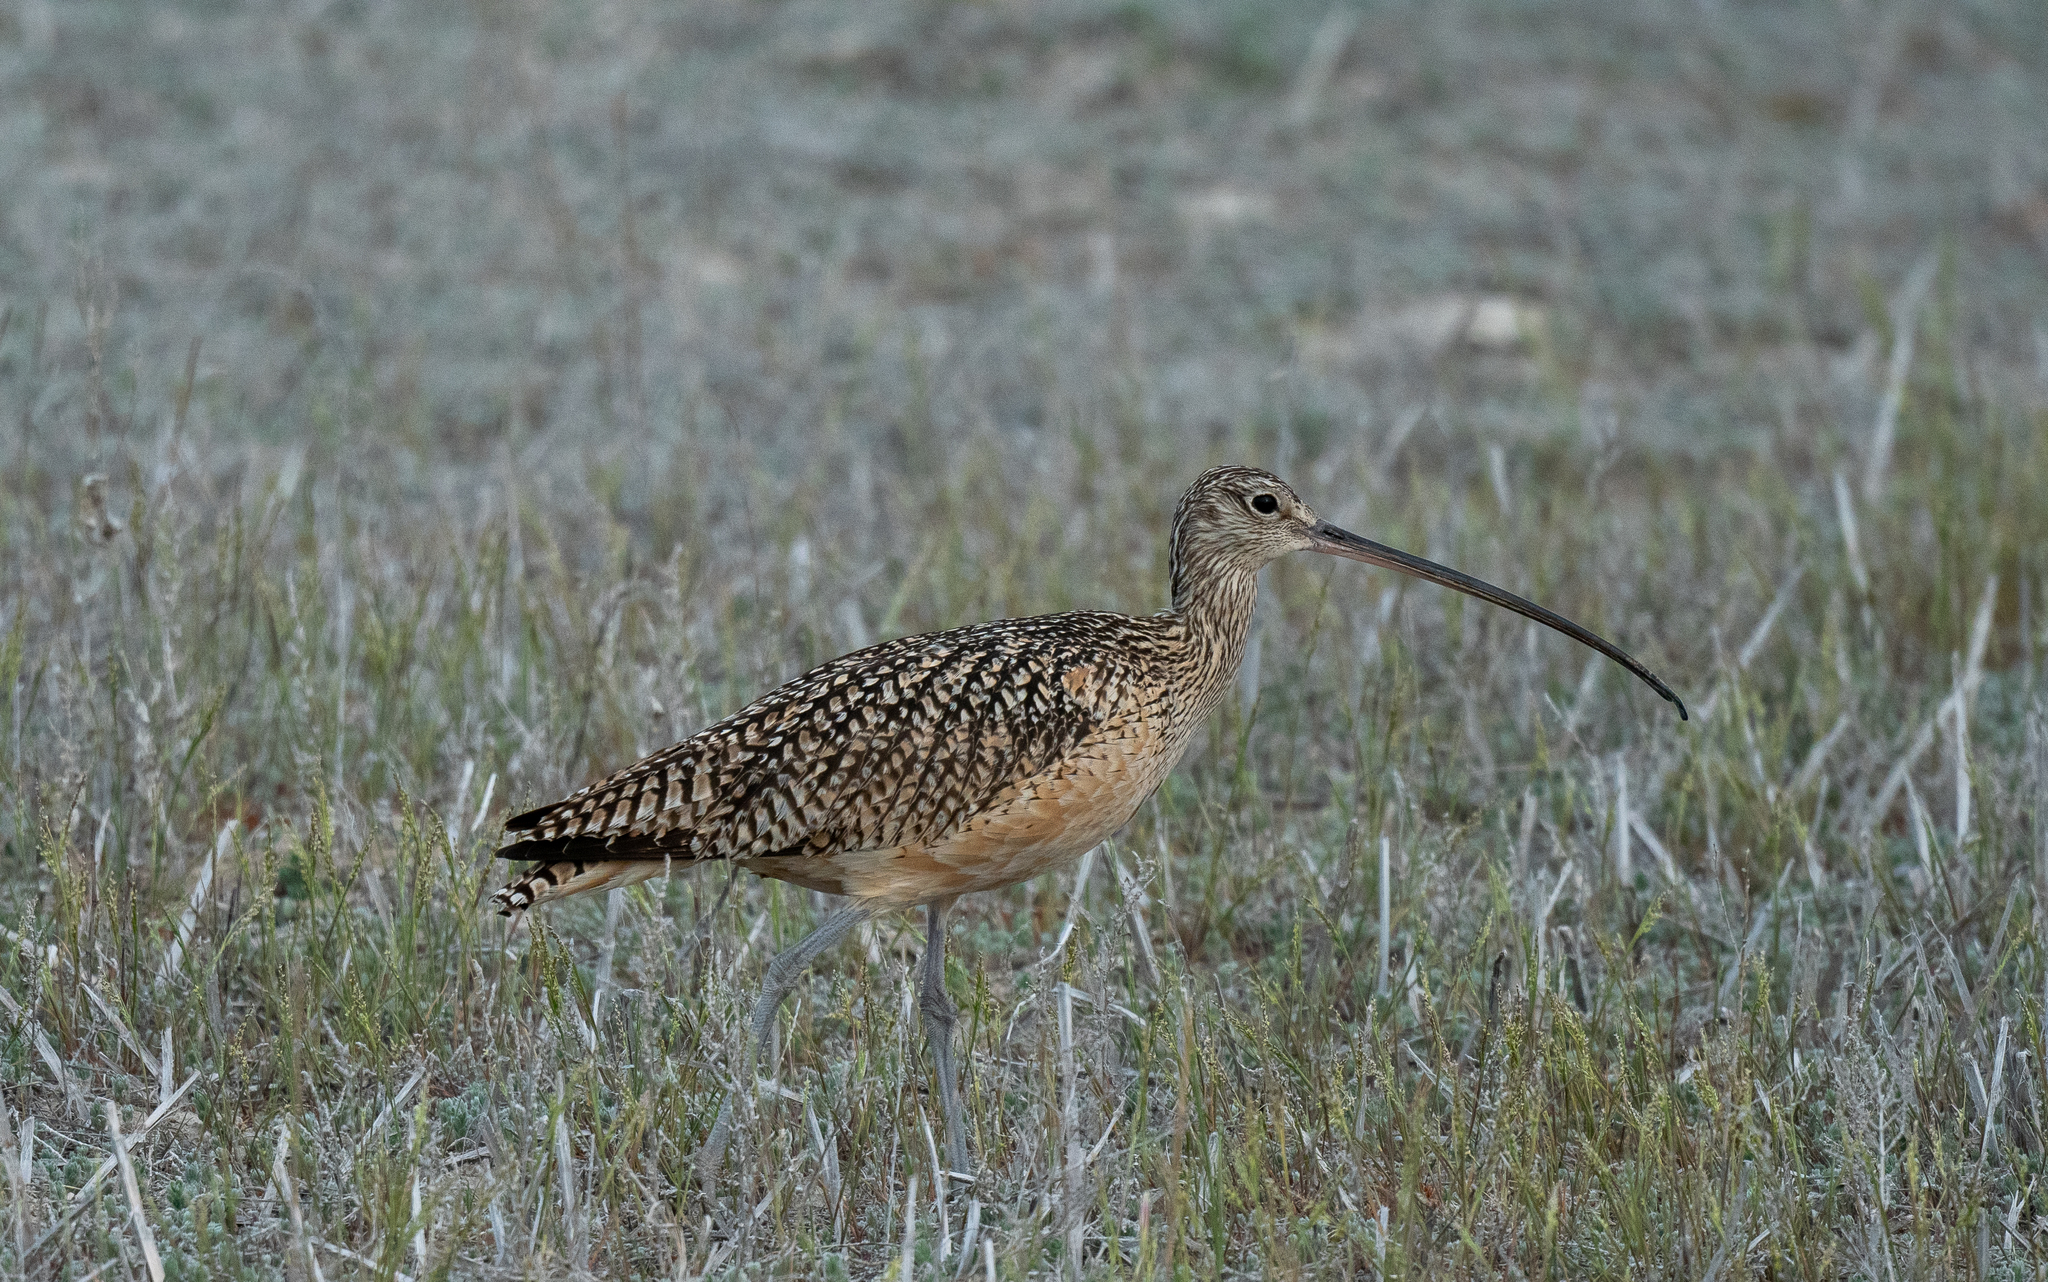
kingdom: Animalia
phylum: Chordata
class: Aves
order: Charadriiformes
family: Scolopacidae
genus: Numenius
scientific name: Numenius americanus
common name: Long-billed curlew
